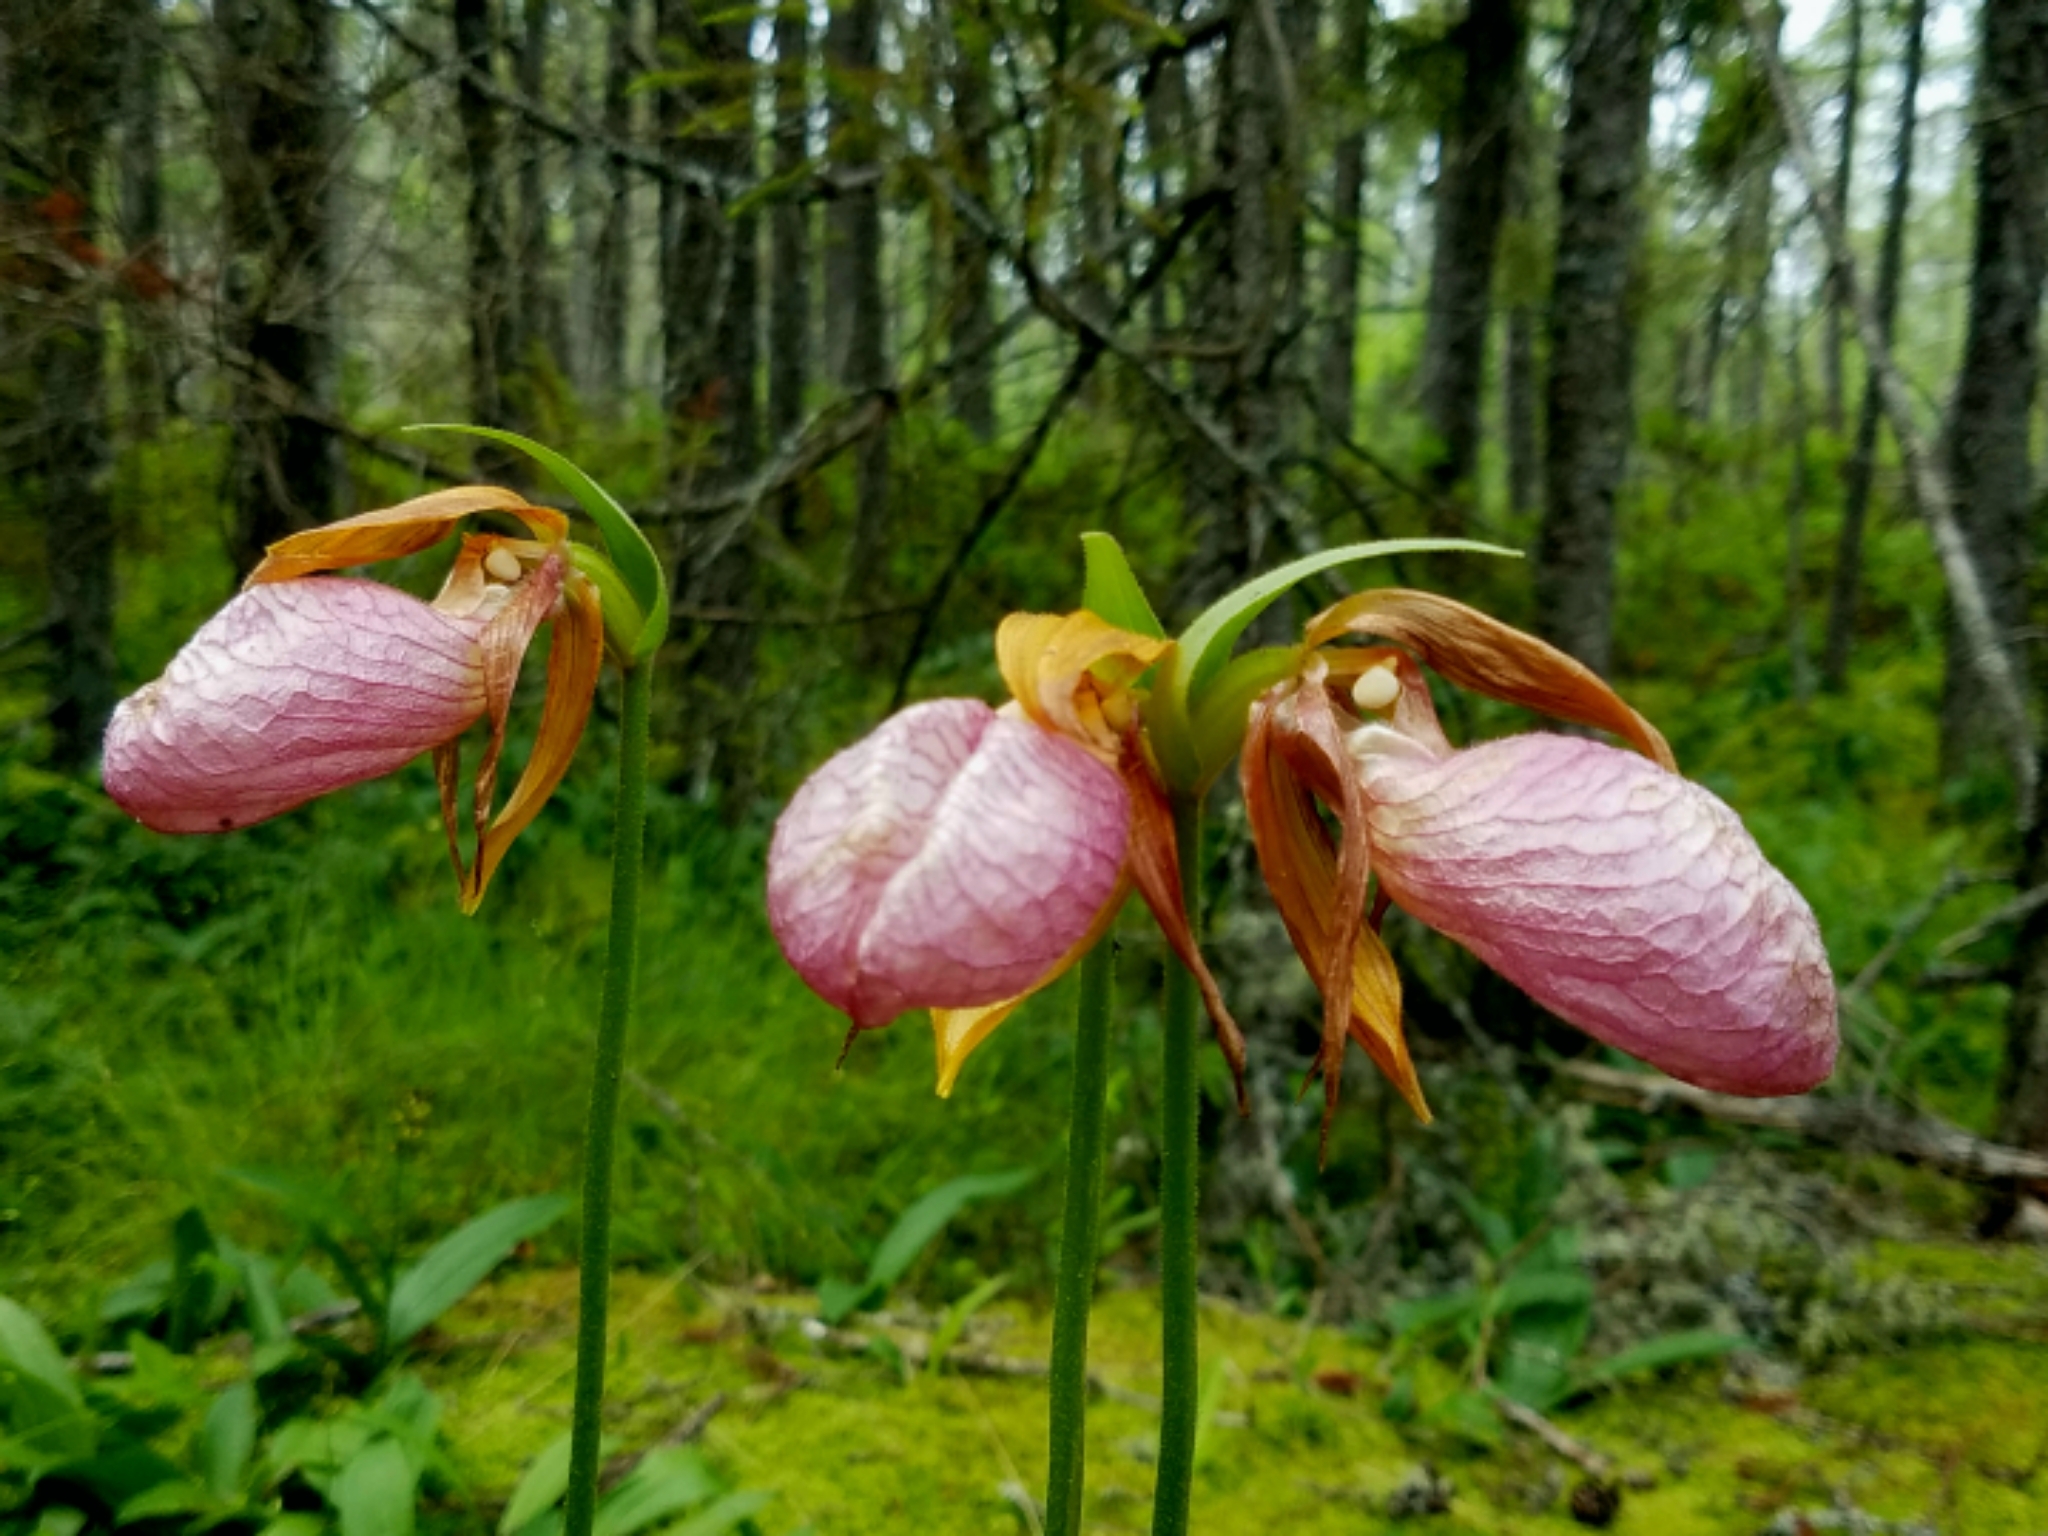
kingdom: Plantae
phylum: Tracheophyta
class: Liliopsida
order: Asparagales
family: Orchidaceae
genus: Cypripedium
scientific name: Cypripedium acaule
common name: Pink lady's-slipper
